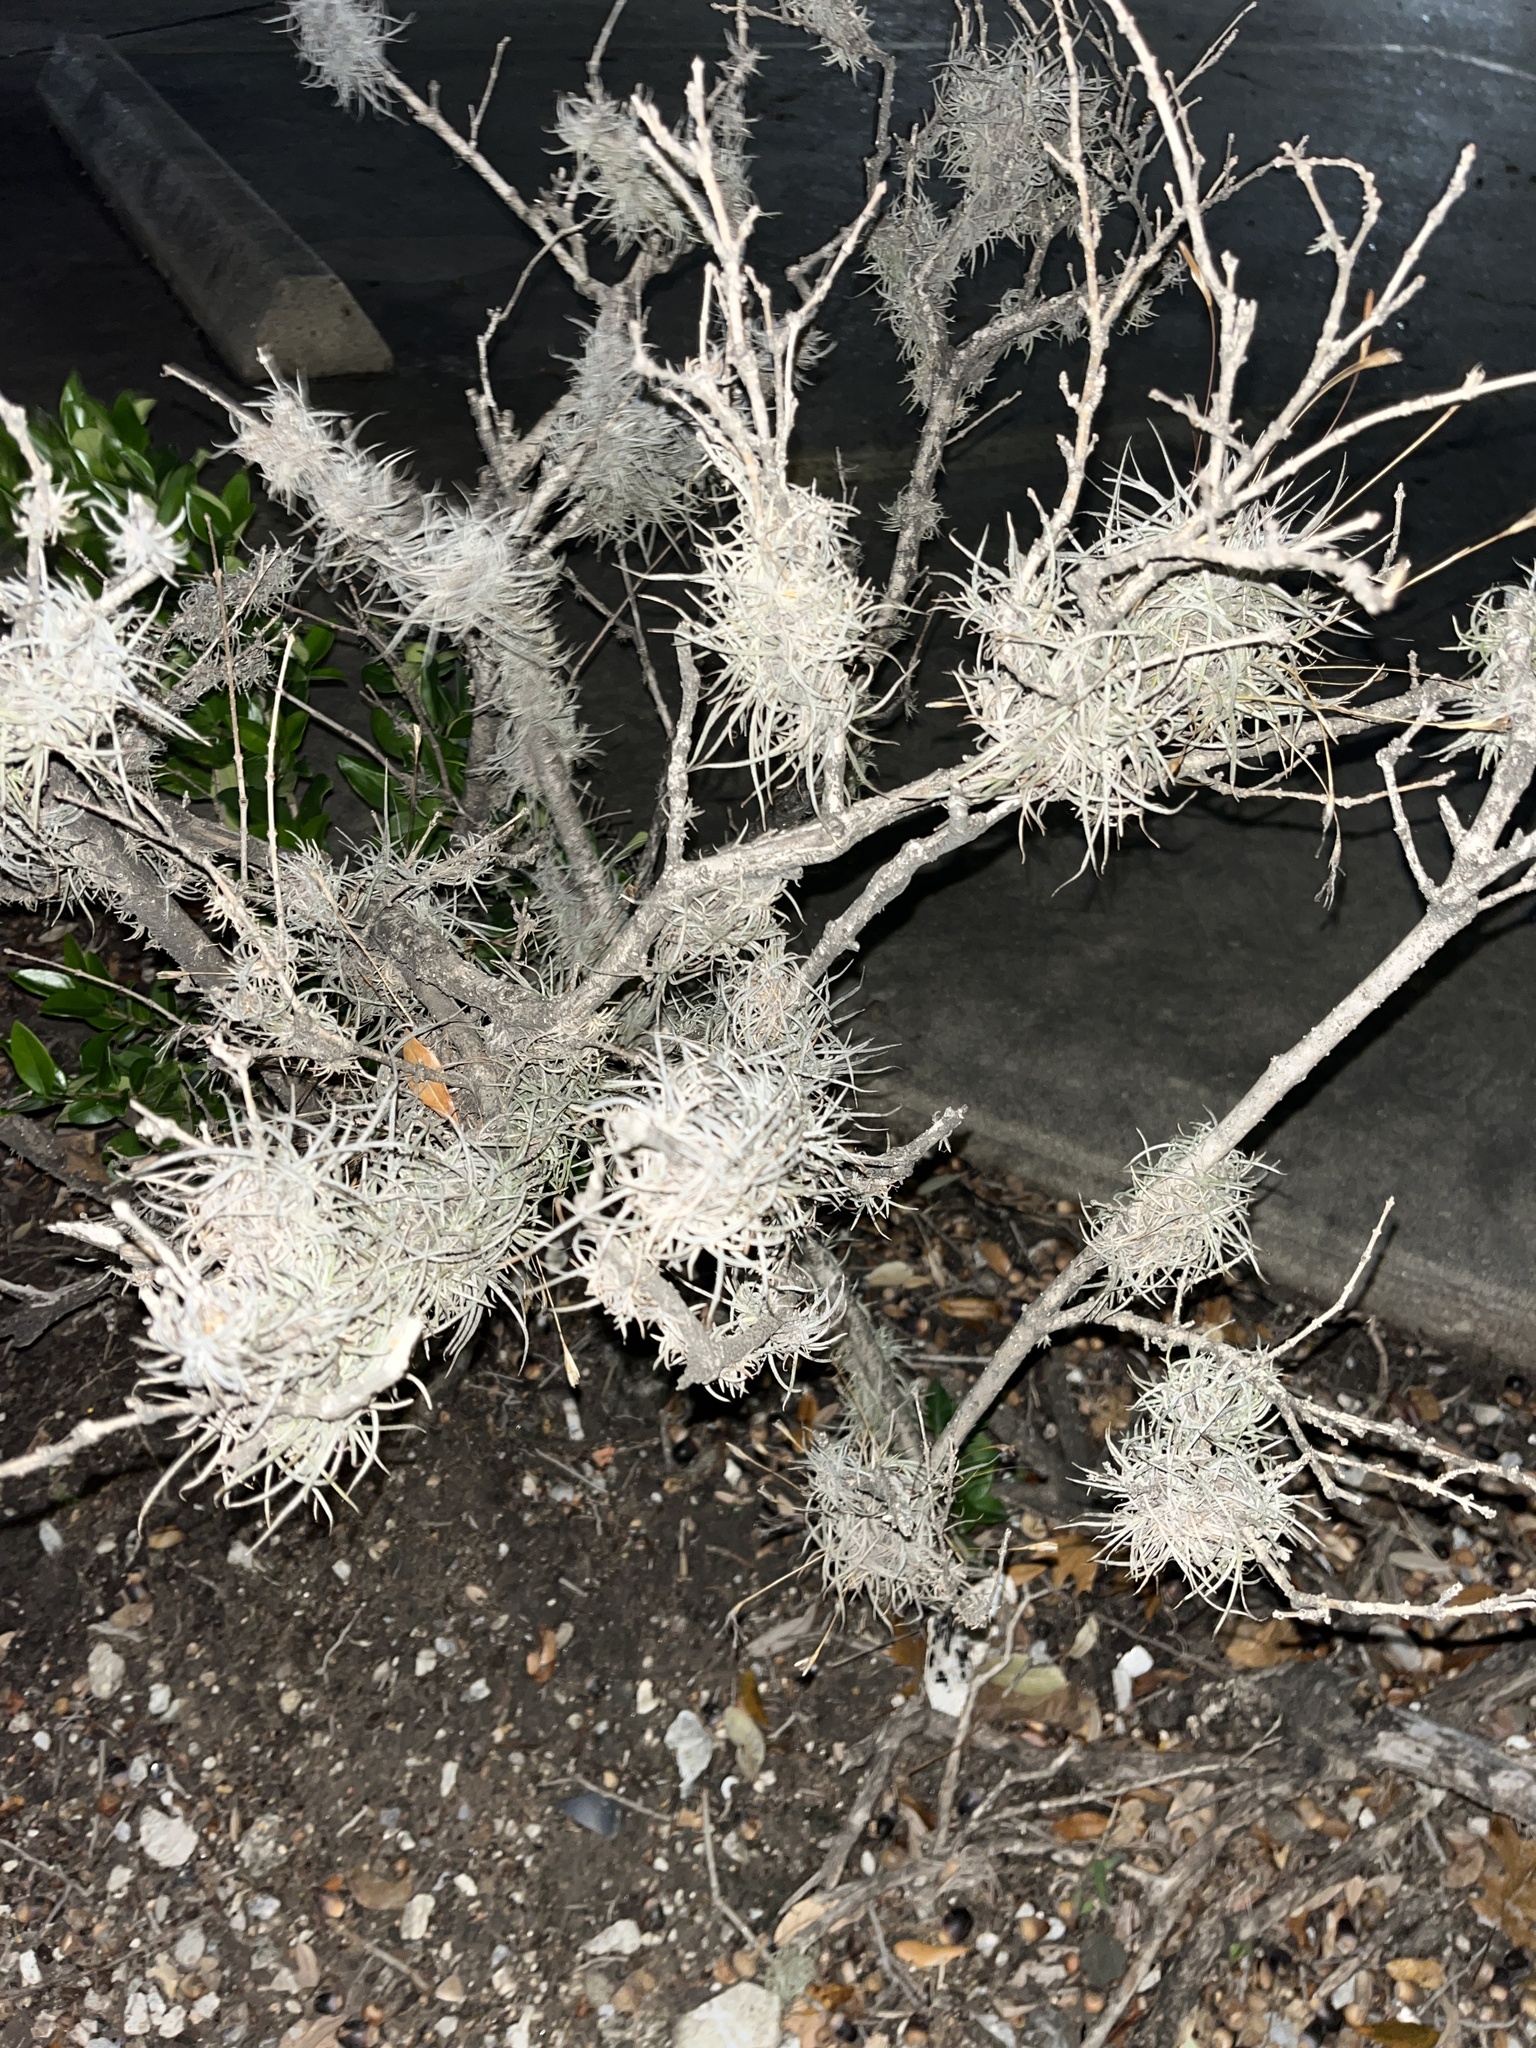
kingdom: Plantae
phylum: Tracheophyta
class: Liliopsida
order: Poales
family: Bromeliaceae
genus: Tillandsia
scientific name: Tillandsia recurvata
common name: Small ballmoss
